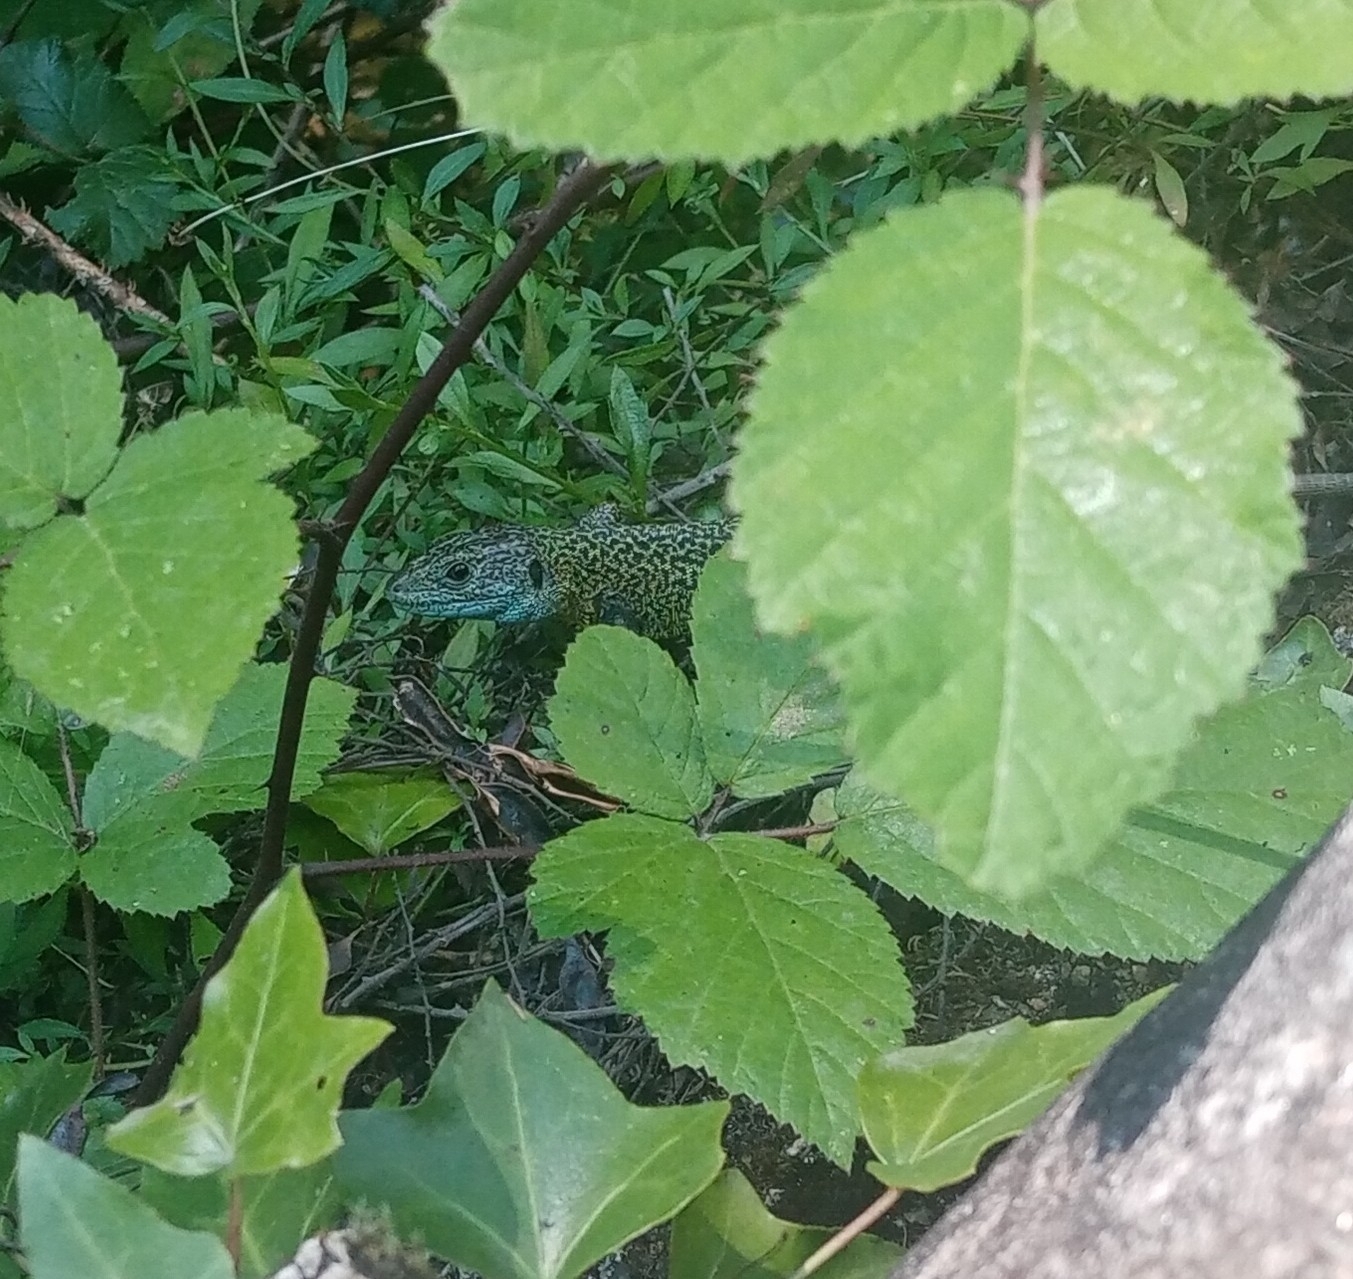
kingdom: Animalia
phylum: Chordata
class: Squamata
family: Lacertidae
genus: Lacerta
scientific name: Lacerta schreiberi
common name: Iberian emerald lizard
